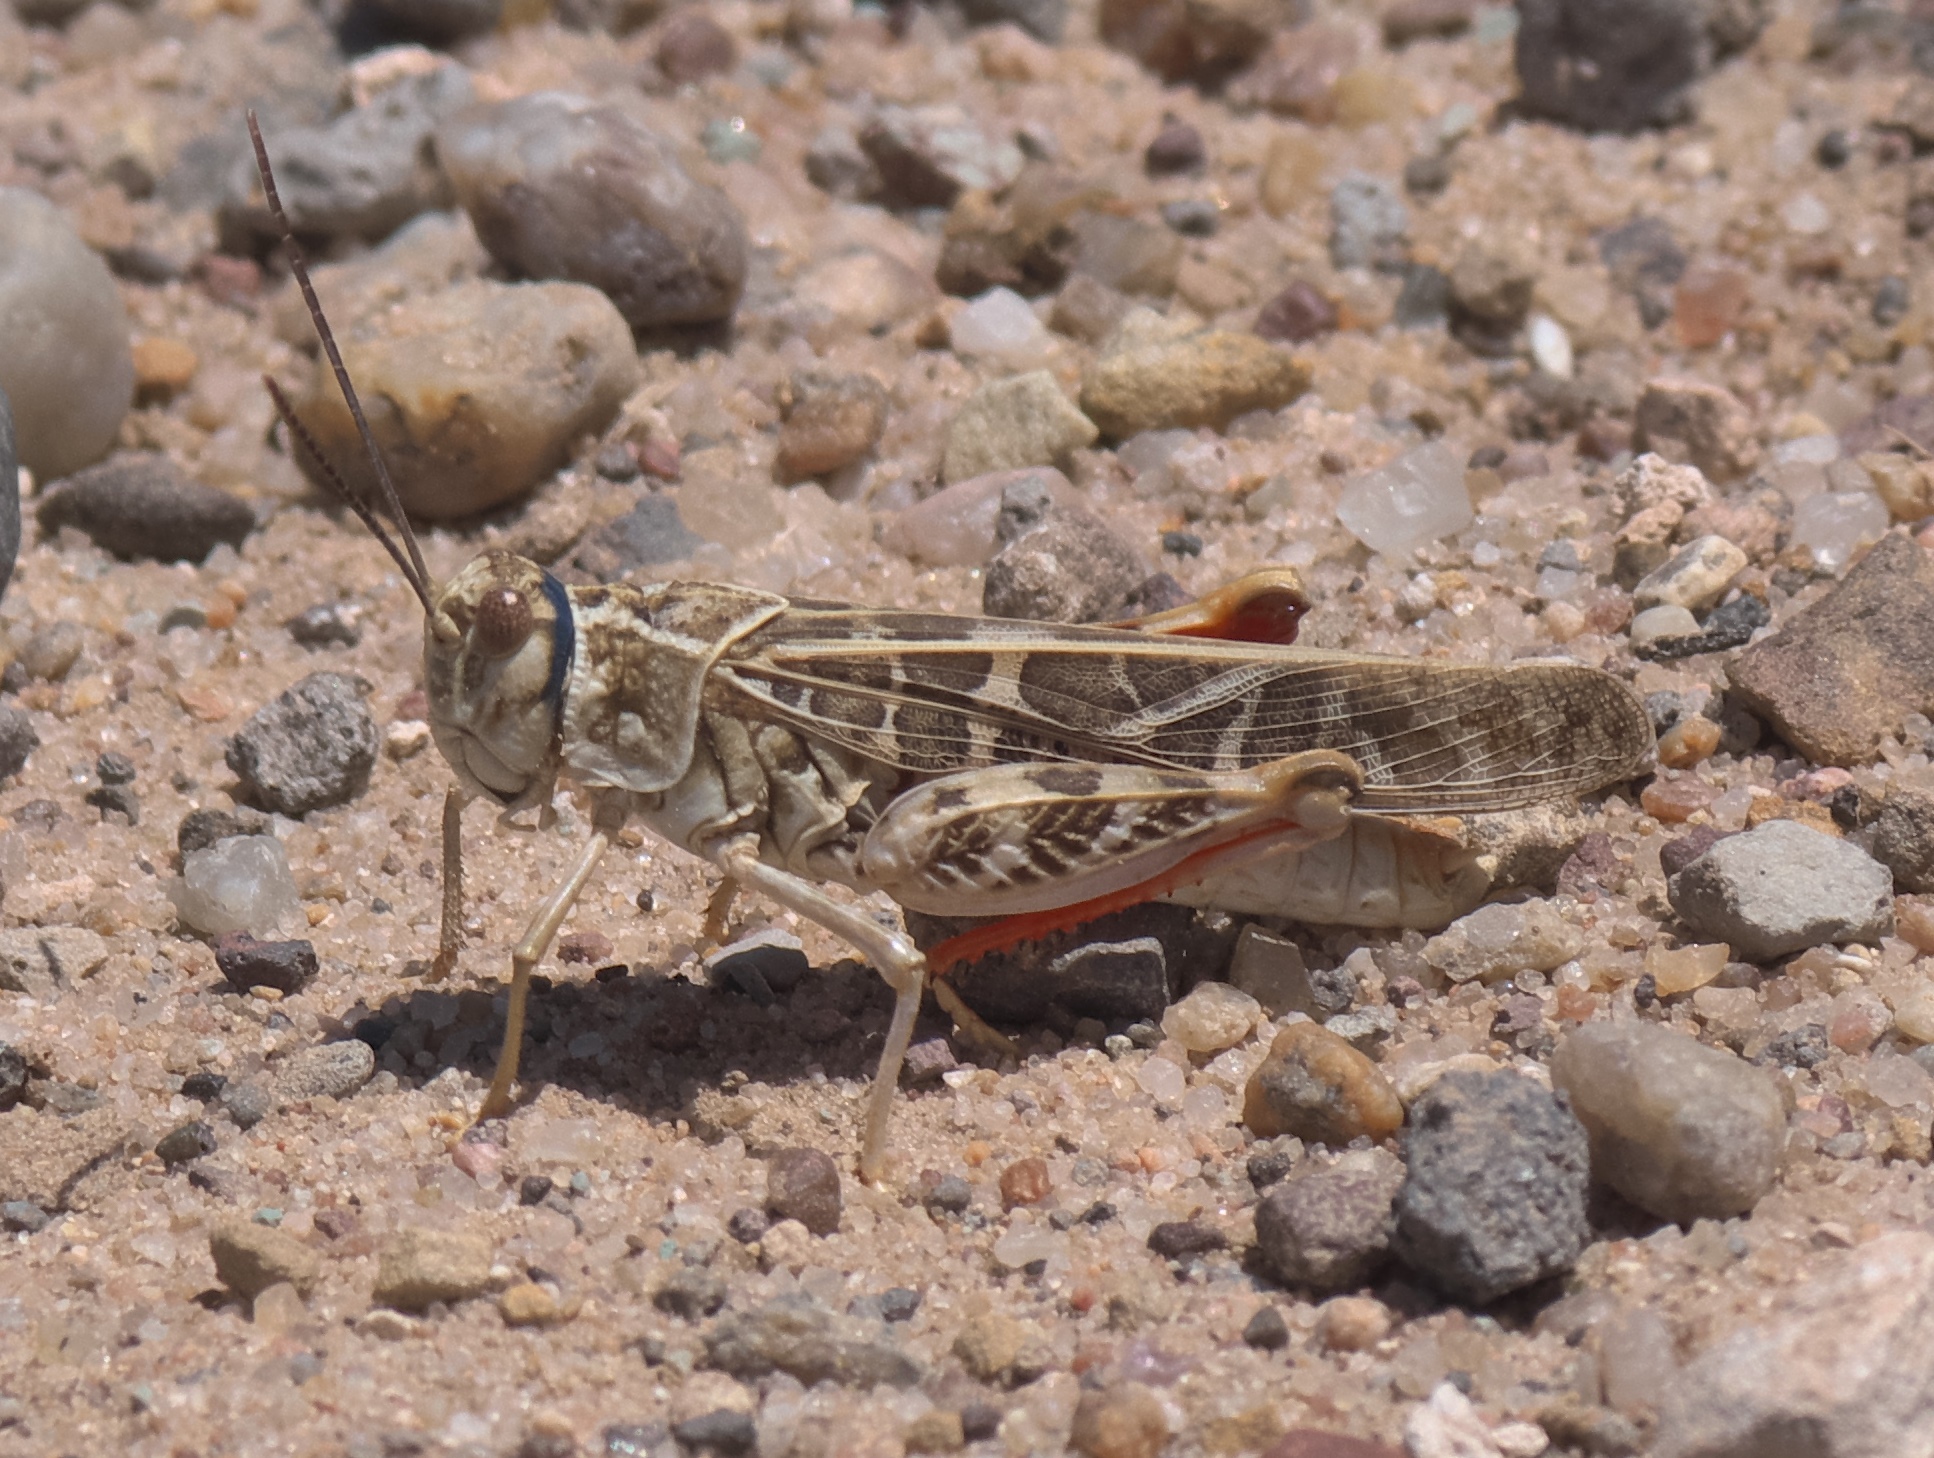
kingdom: Animalia
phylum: Arthropoda
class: Insecta
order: Orthoptera
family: Acrididae
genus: Xanthippus
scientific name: Xanthippus corallipes
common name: Redshanked grasshopper
